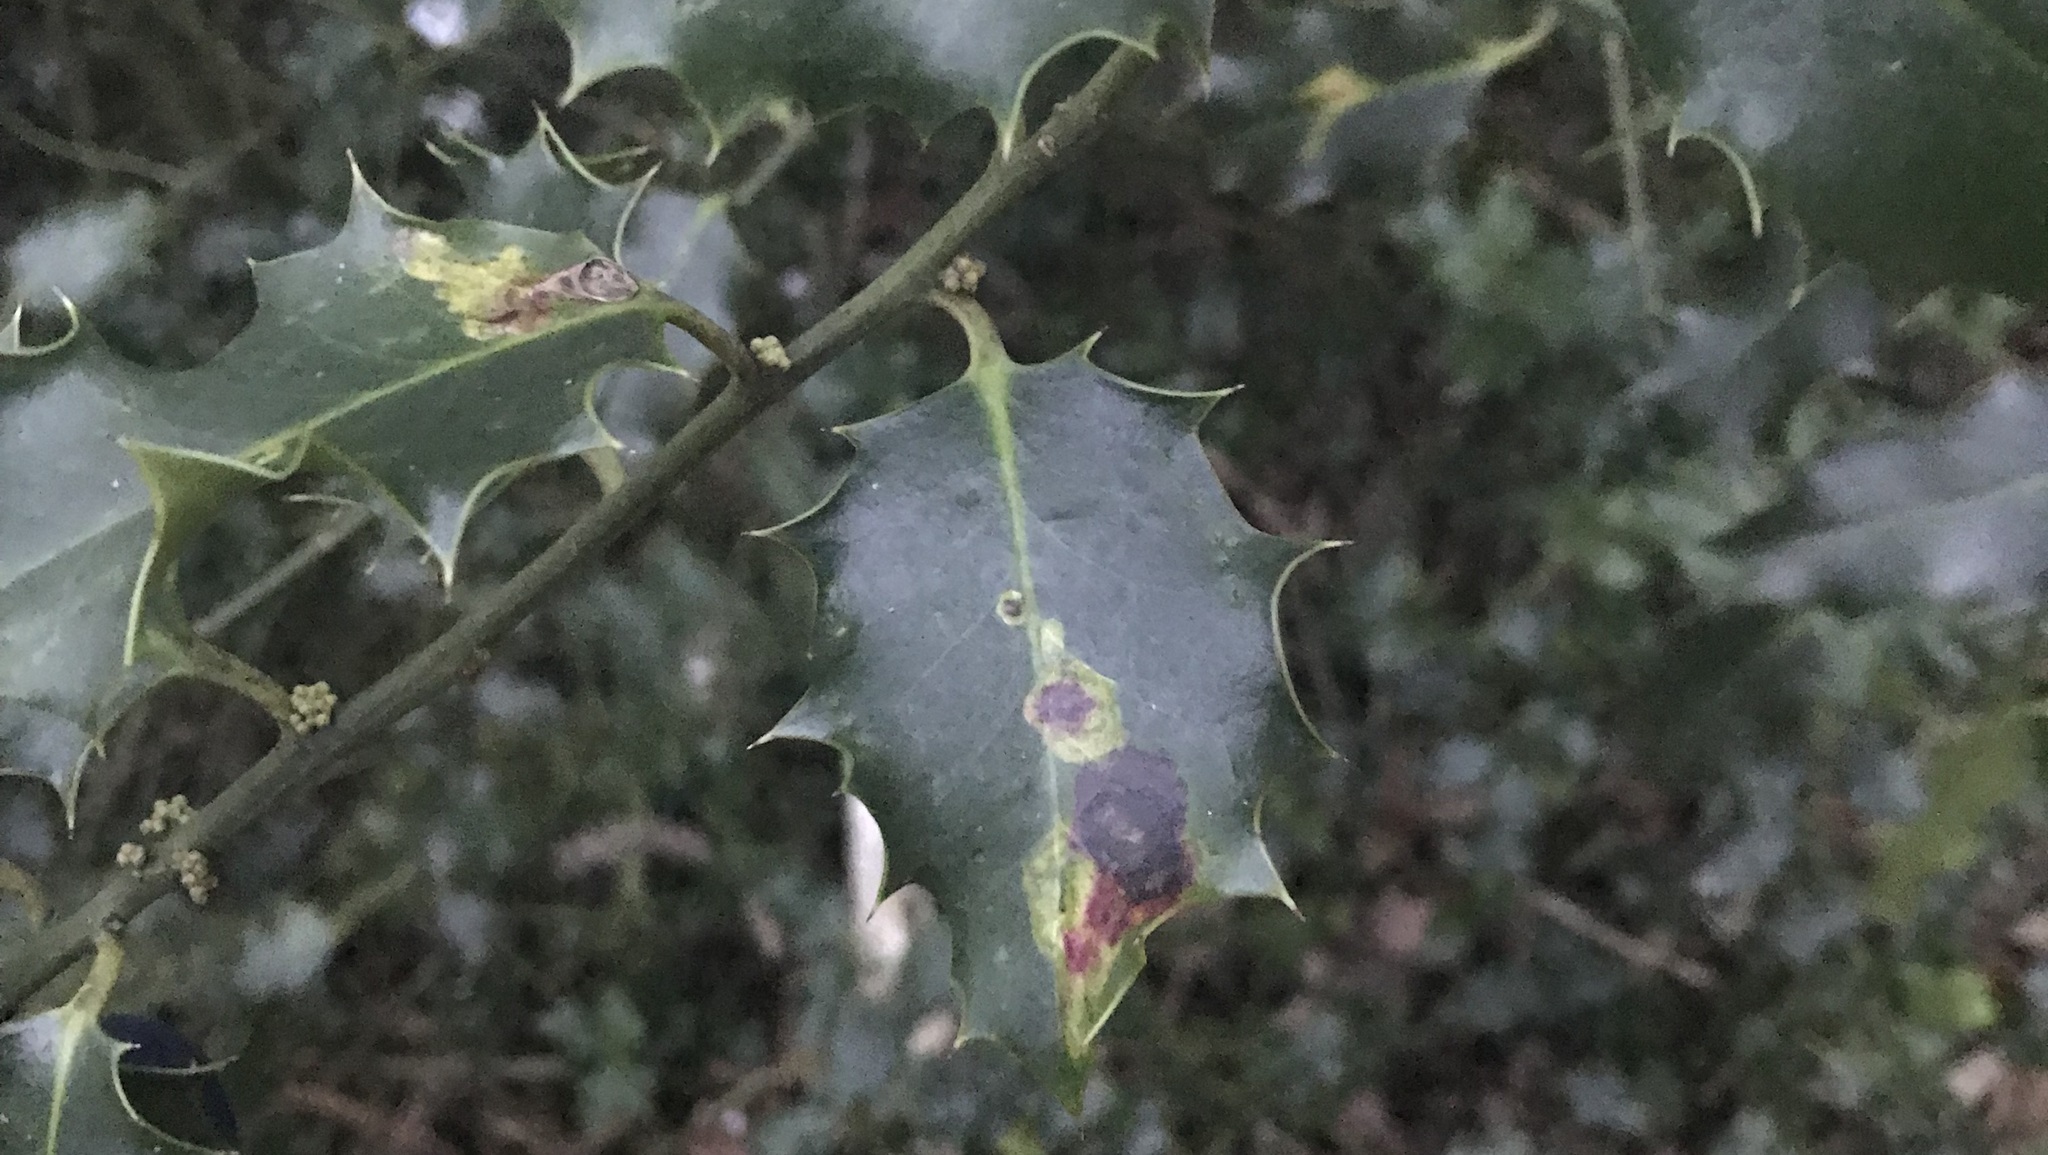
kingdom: Animalia
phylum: Arthropoda
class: Insecta
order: Diptera
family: Agromyzidae
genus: Phytomyza
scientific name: Phytomyza ilicis
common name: Holly leafminer
